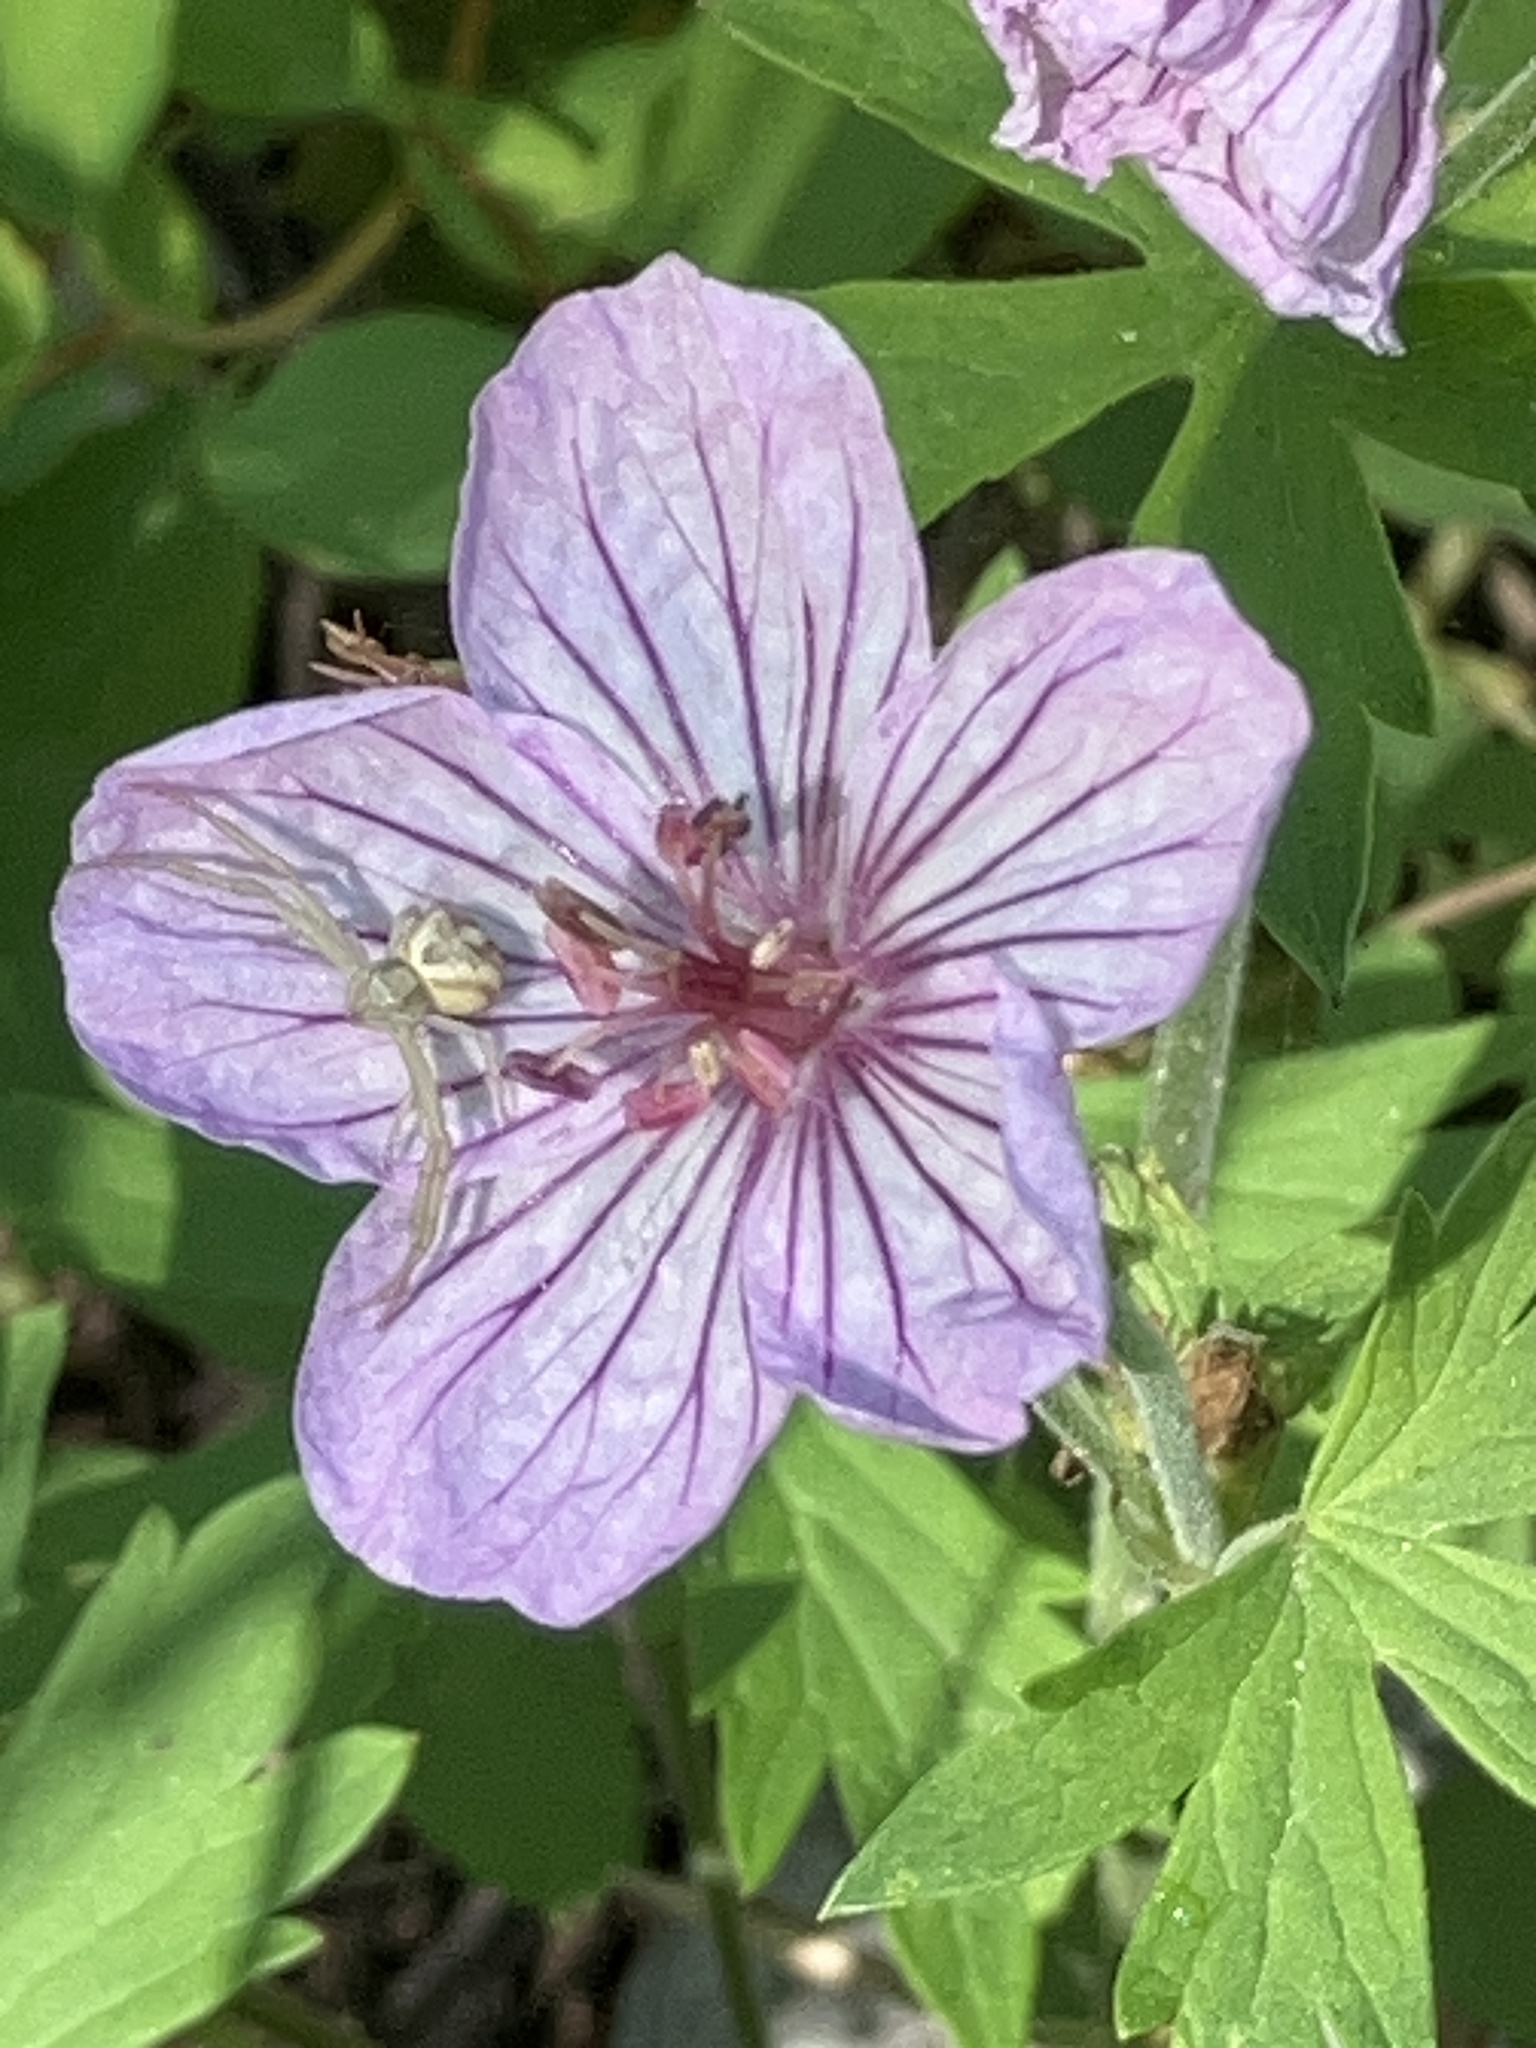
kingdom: Plantae
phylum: Tracheophyta
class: Magnoliopsida
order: Geraniales
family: Geraniaceae
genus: Geranium
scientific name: Geranium viscosissimum
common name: Purple geranium
